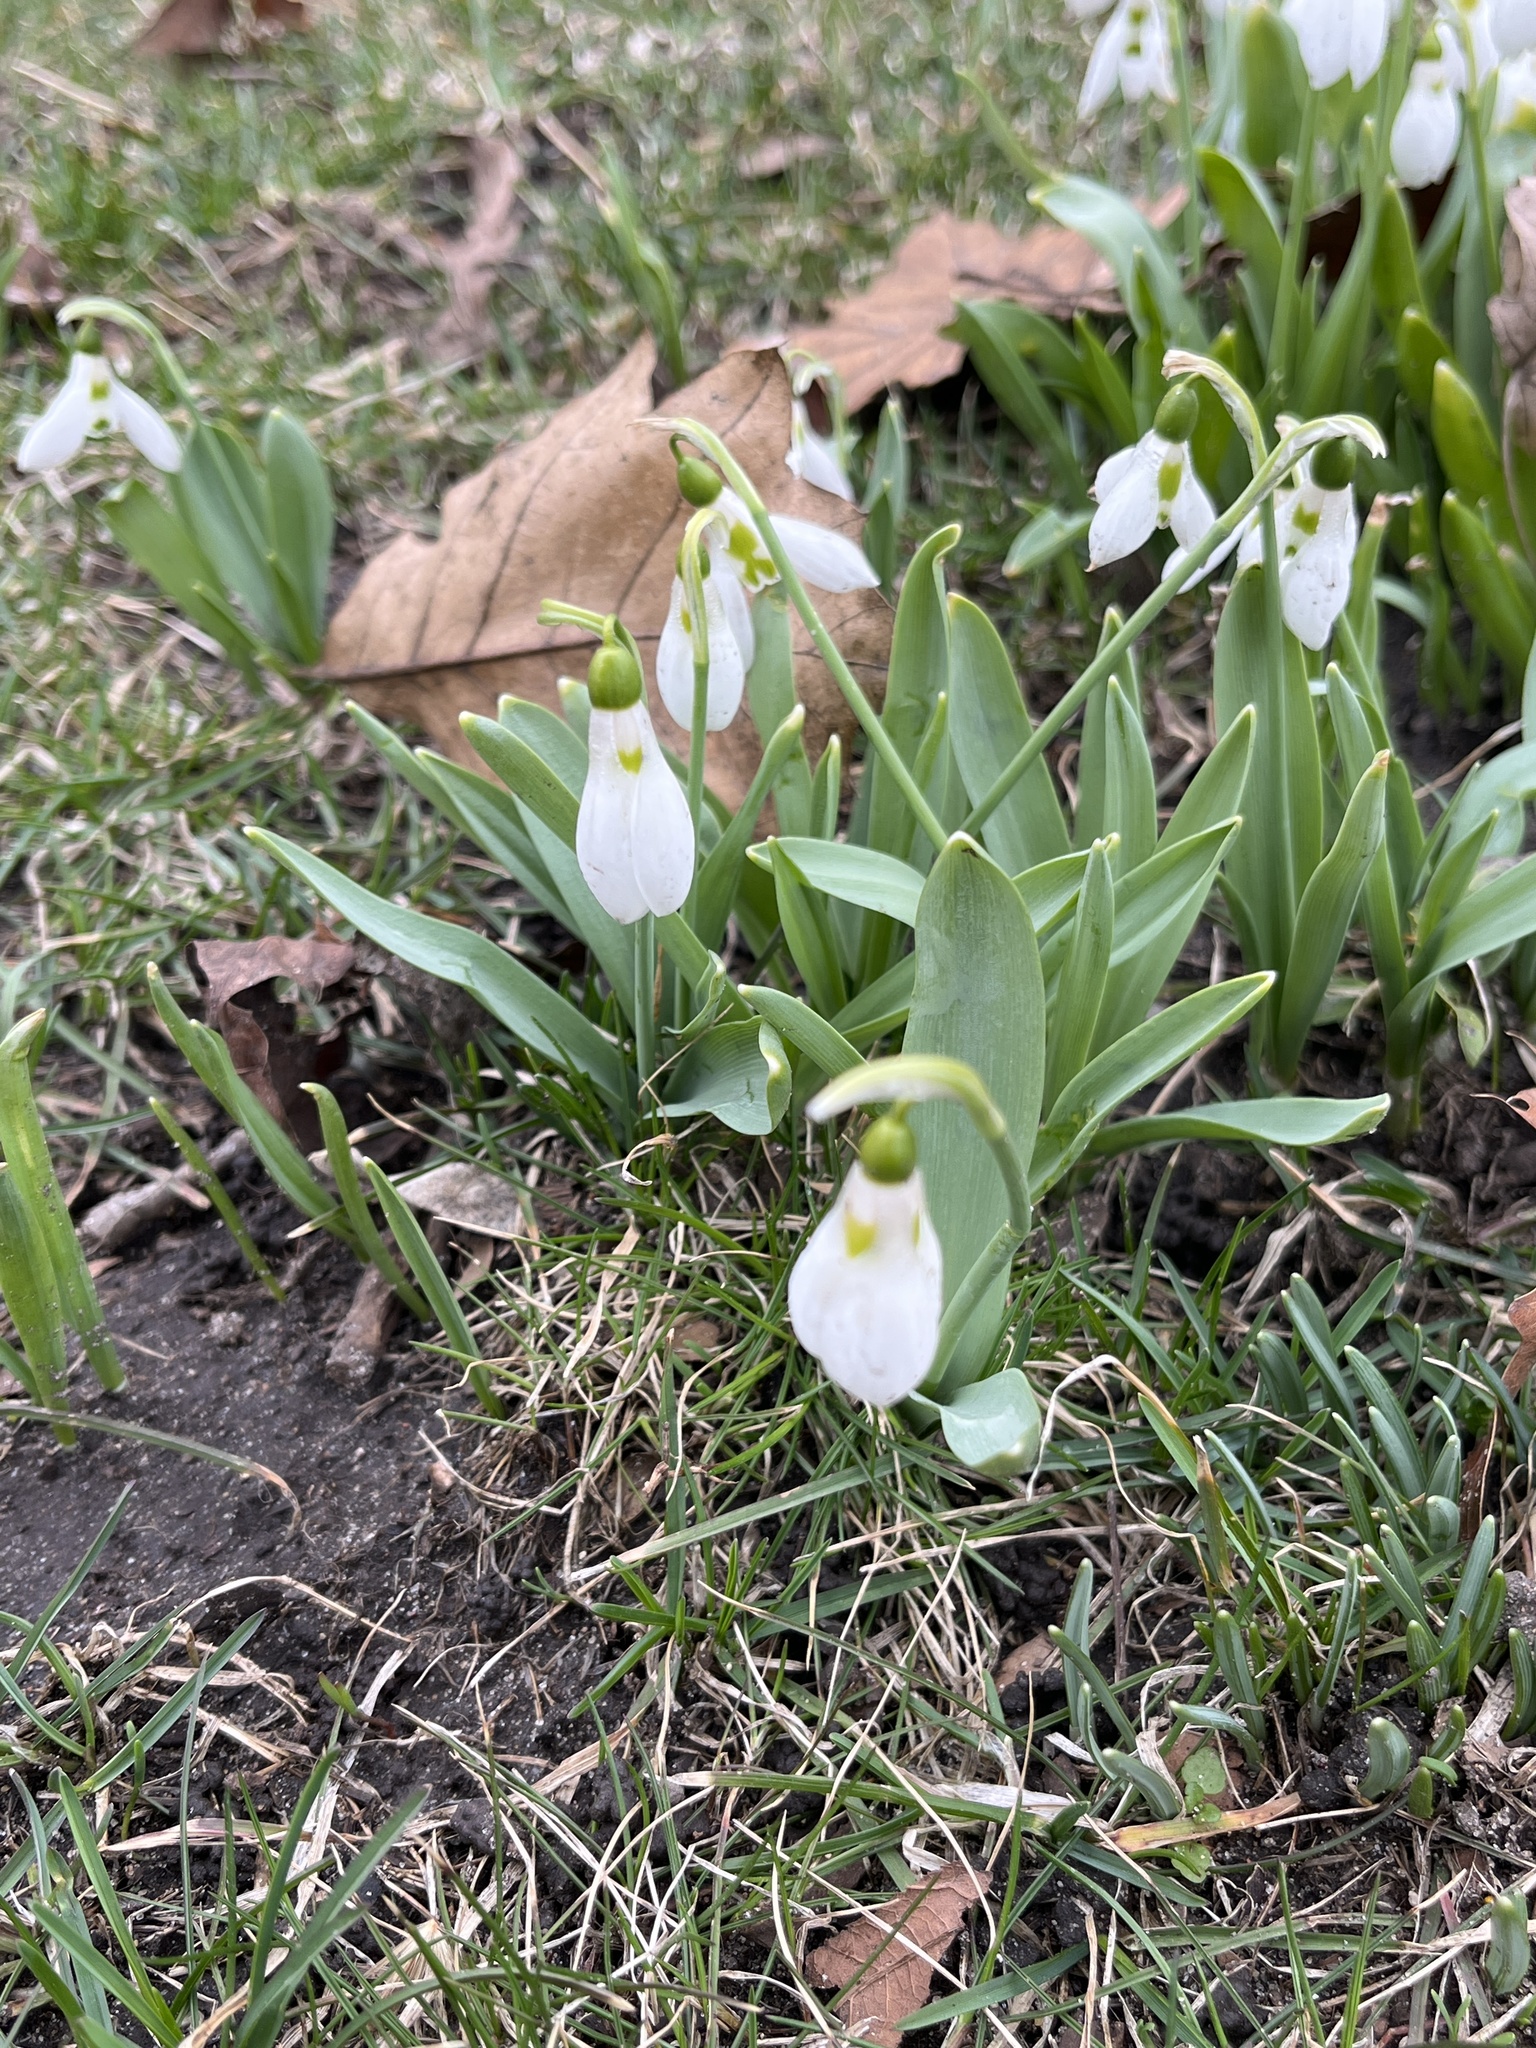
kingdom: Plantae
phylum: Tracheophyta
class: Liliopsida
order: Asparagales
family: Amaryllidaceae
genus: Galanthus
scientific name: Galanthus elwesii
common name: Greater snowdrop
